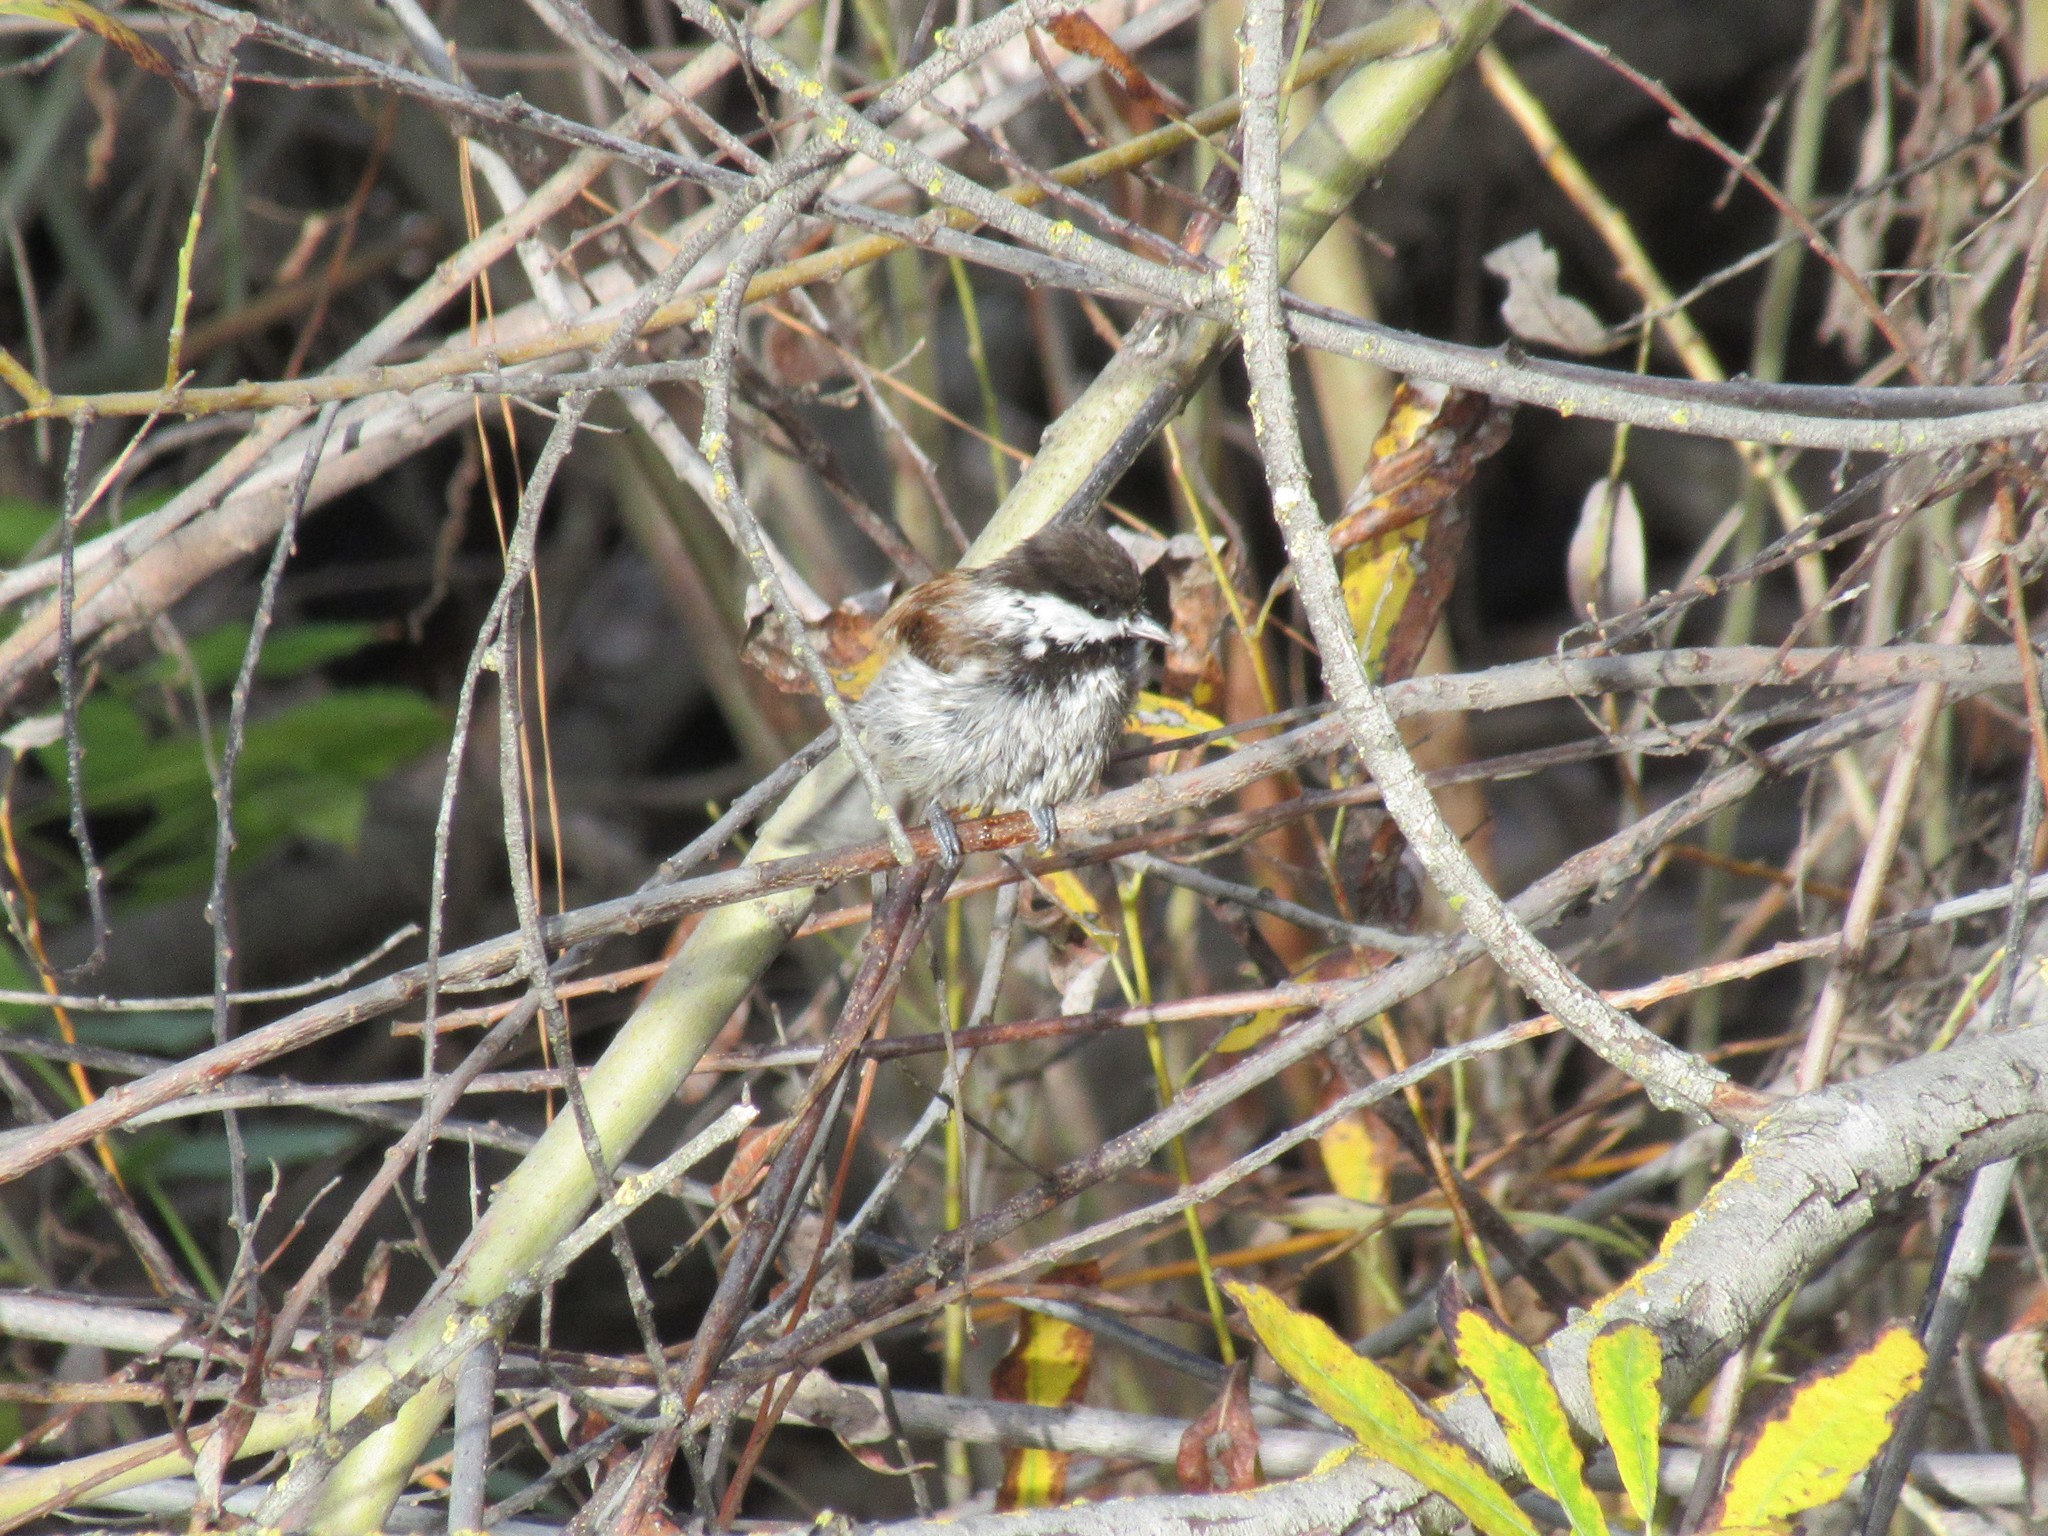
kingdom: Animalia
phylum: Chordata
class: Aves
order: Passeriformes
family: Paridae
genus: Poecile
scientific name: Poecile rufescens
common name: Chestnut-backed chickadee
